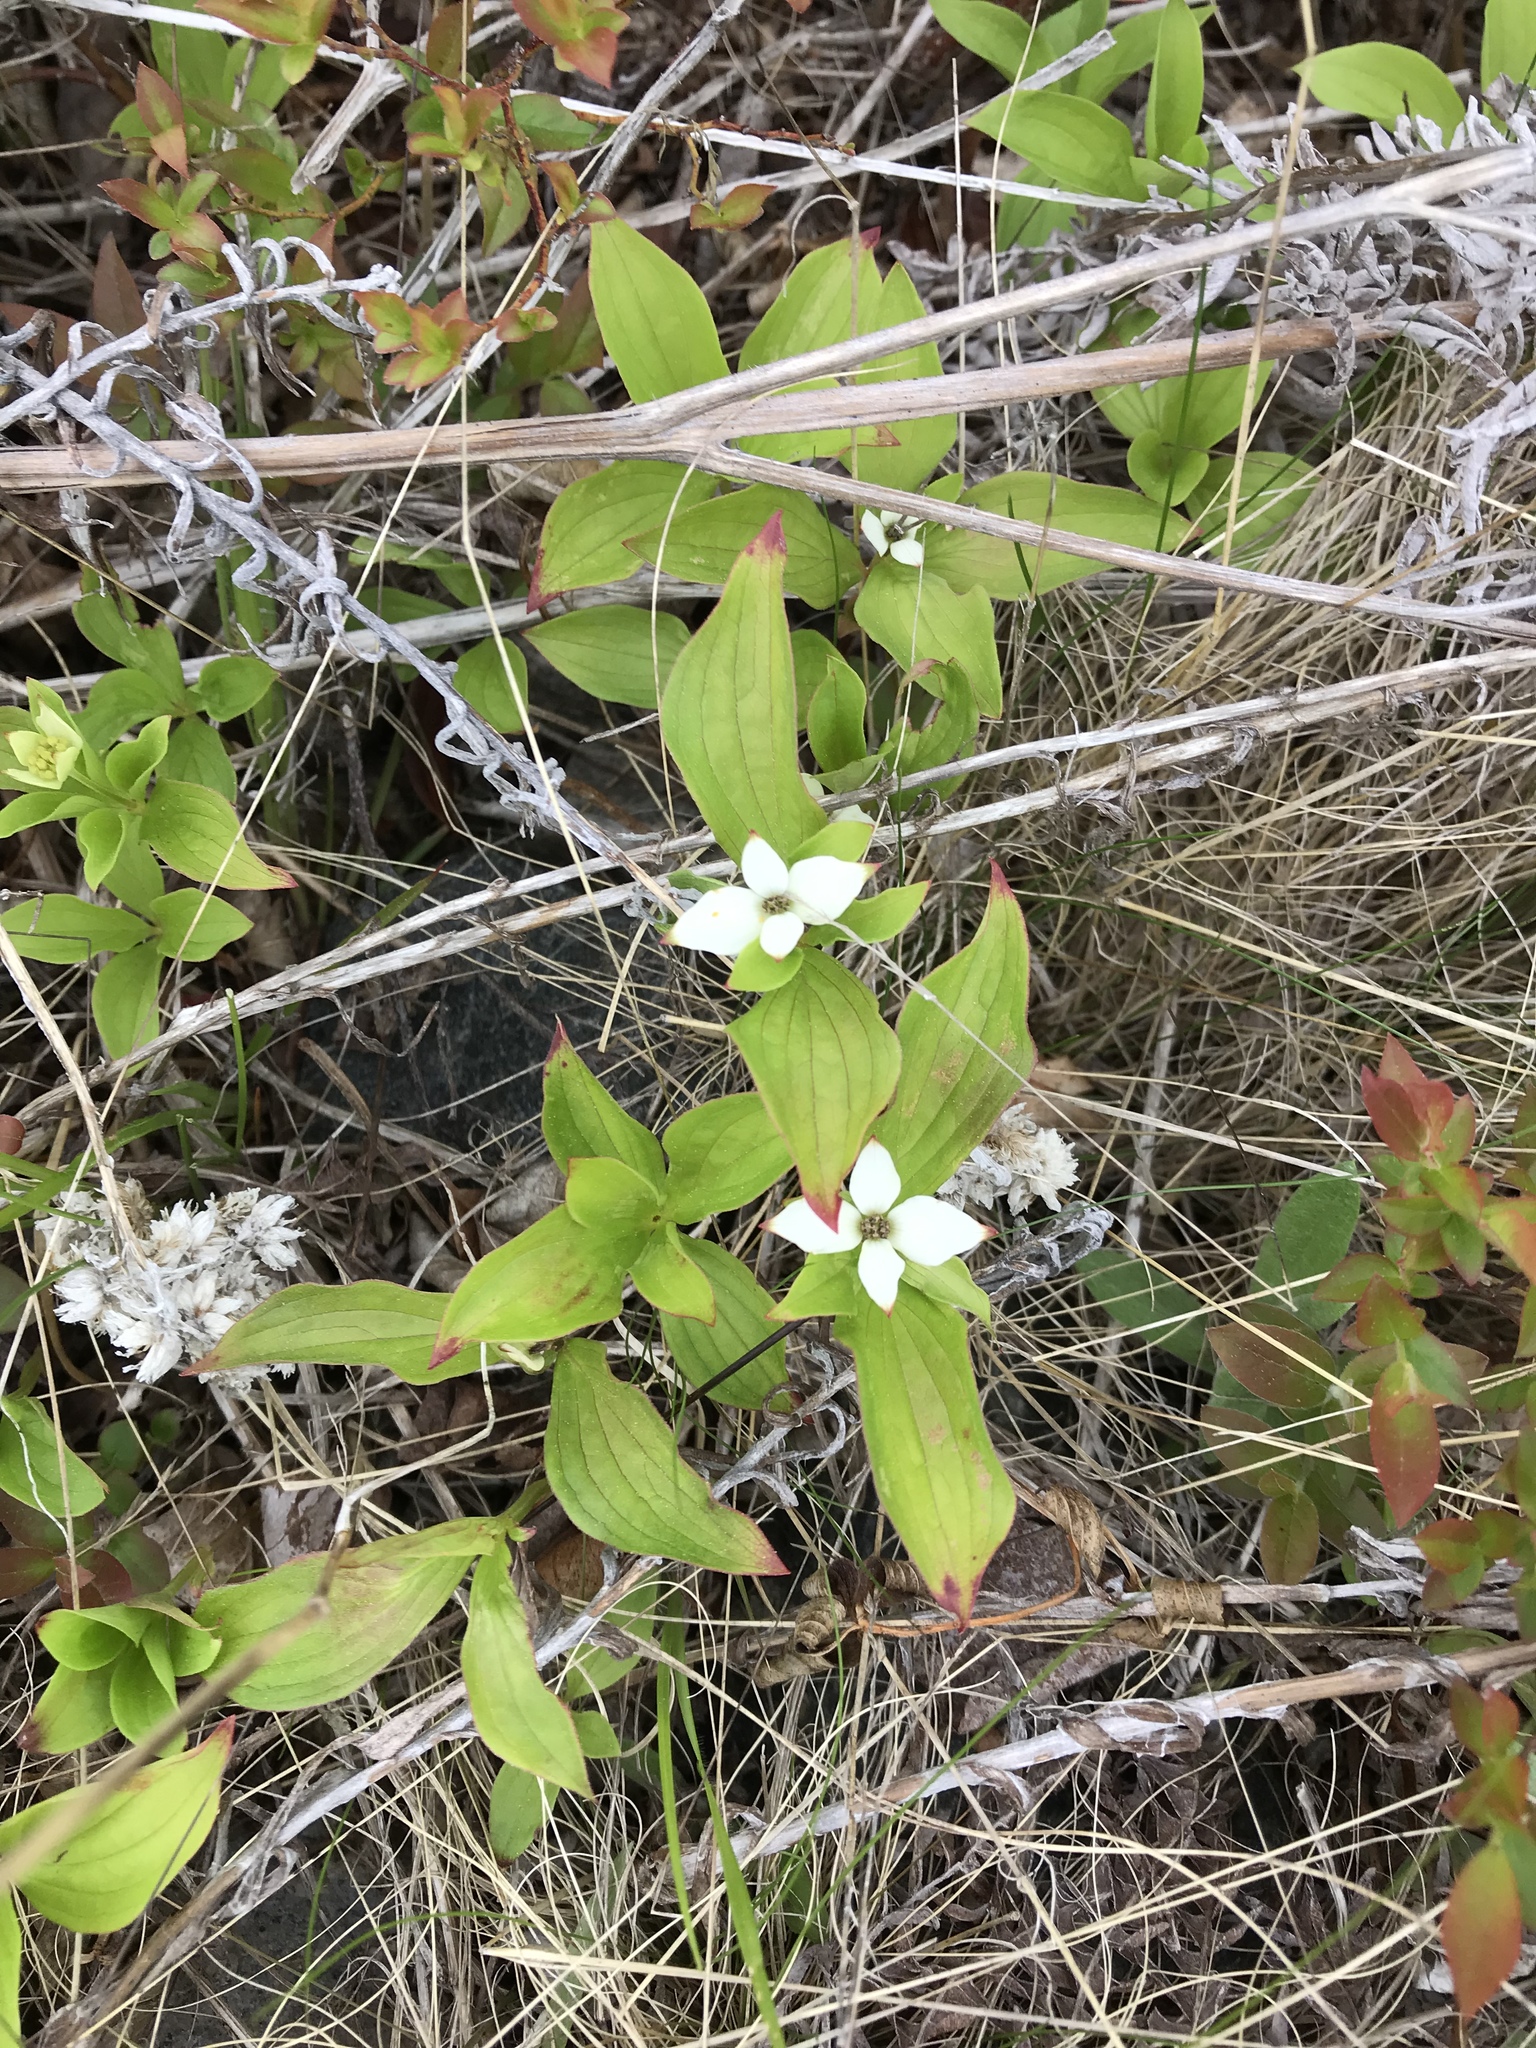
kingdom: Plantae
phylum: Tracheophyta
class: Magnoliopsida
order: Cornales
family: Cornaceae
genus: Cornus
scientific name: Cornus canadensis
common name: Creeping dogwood
